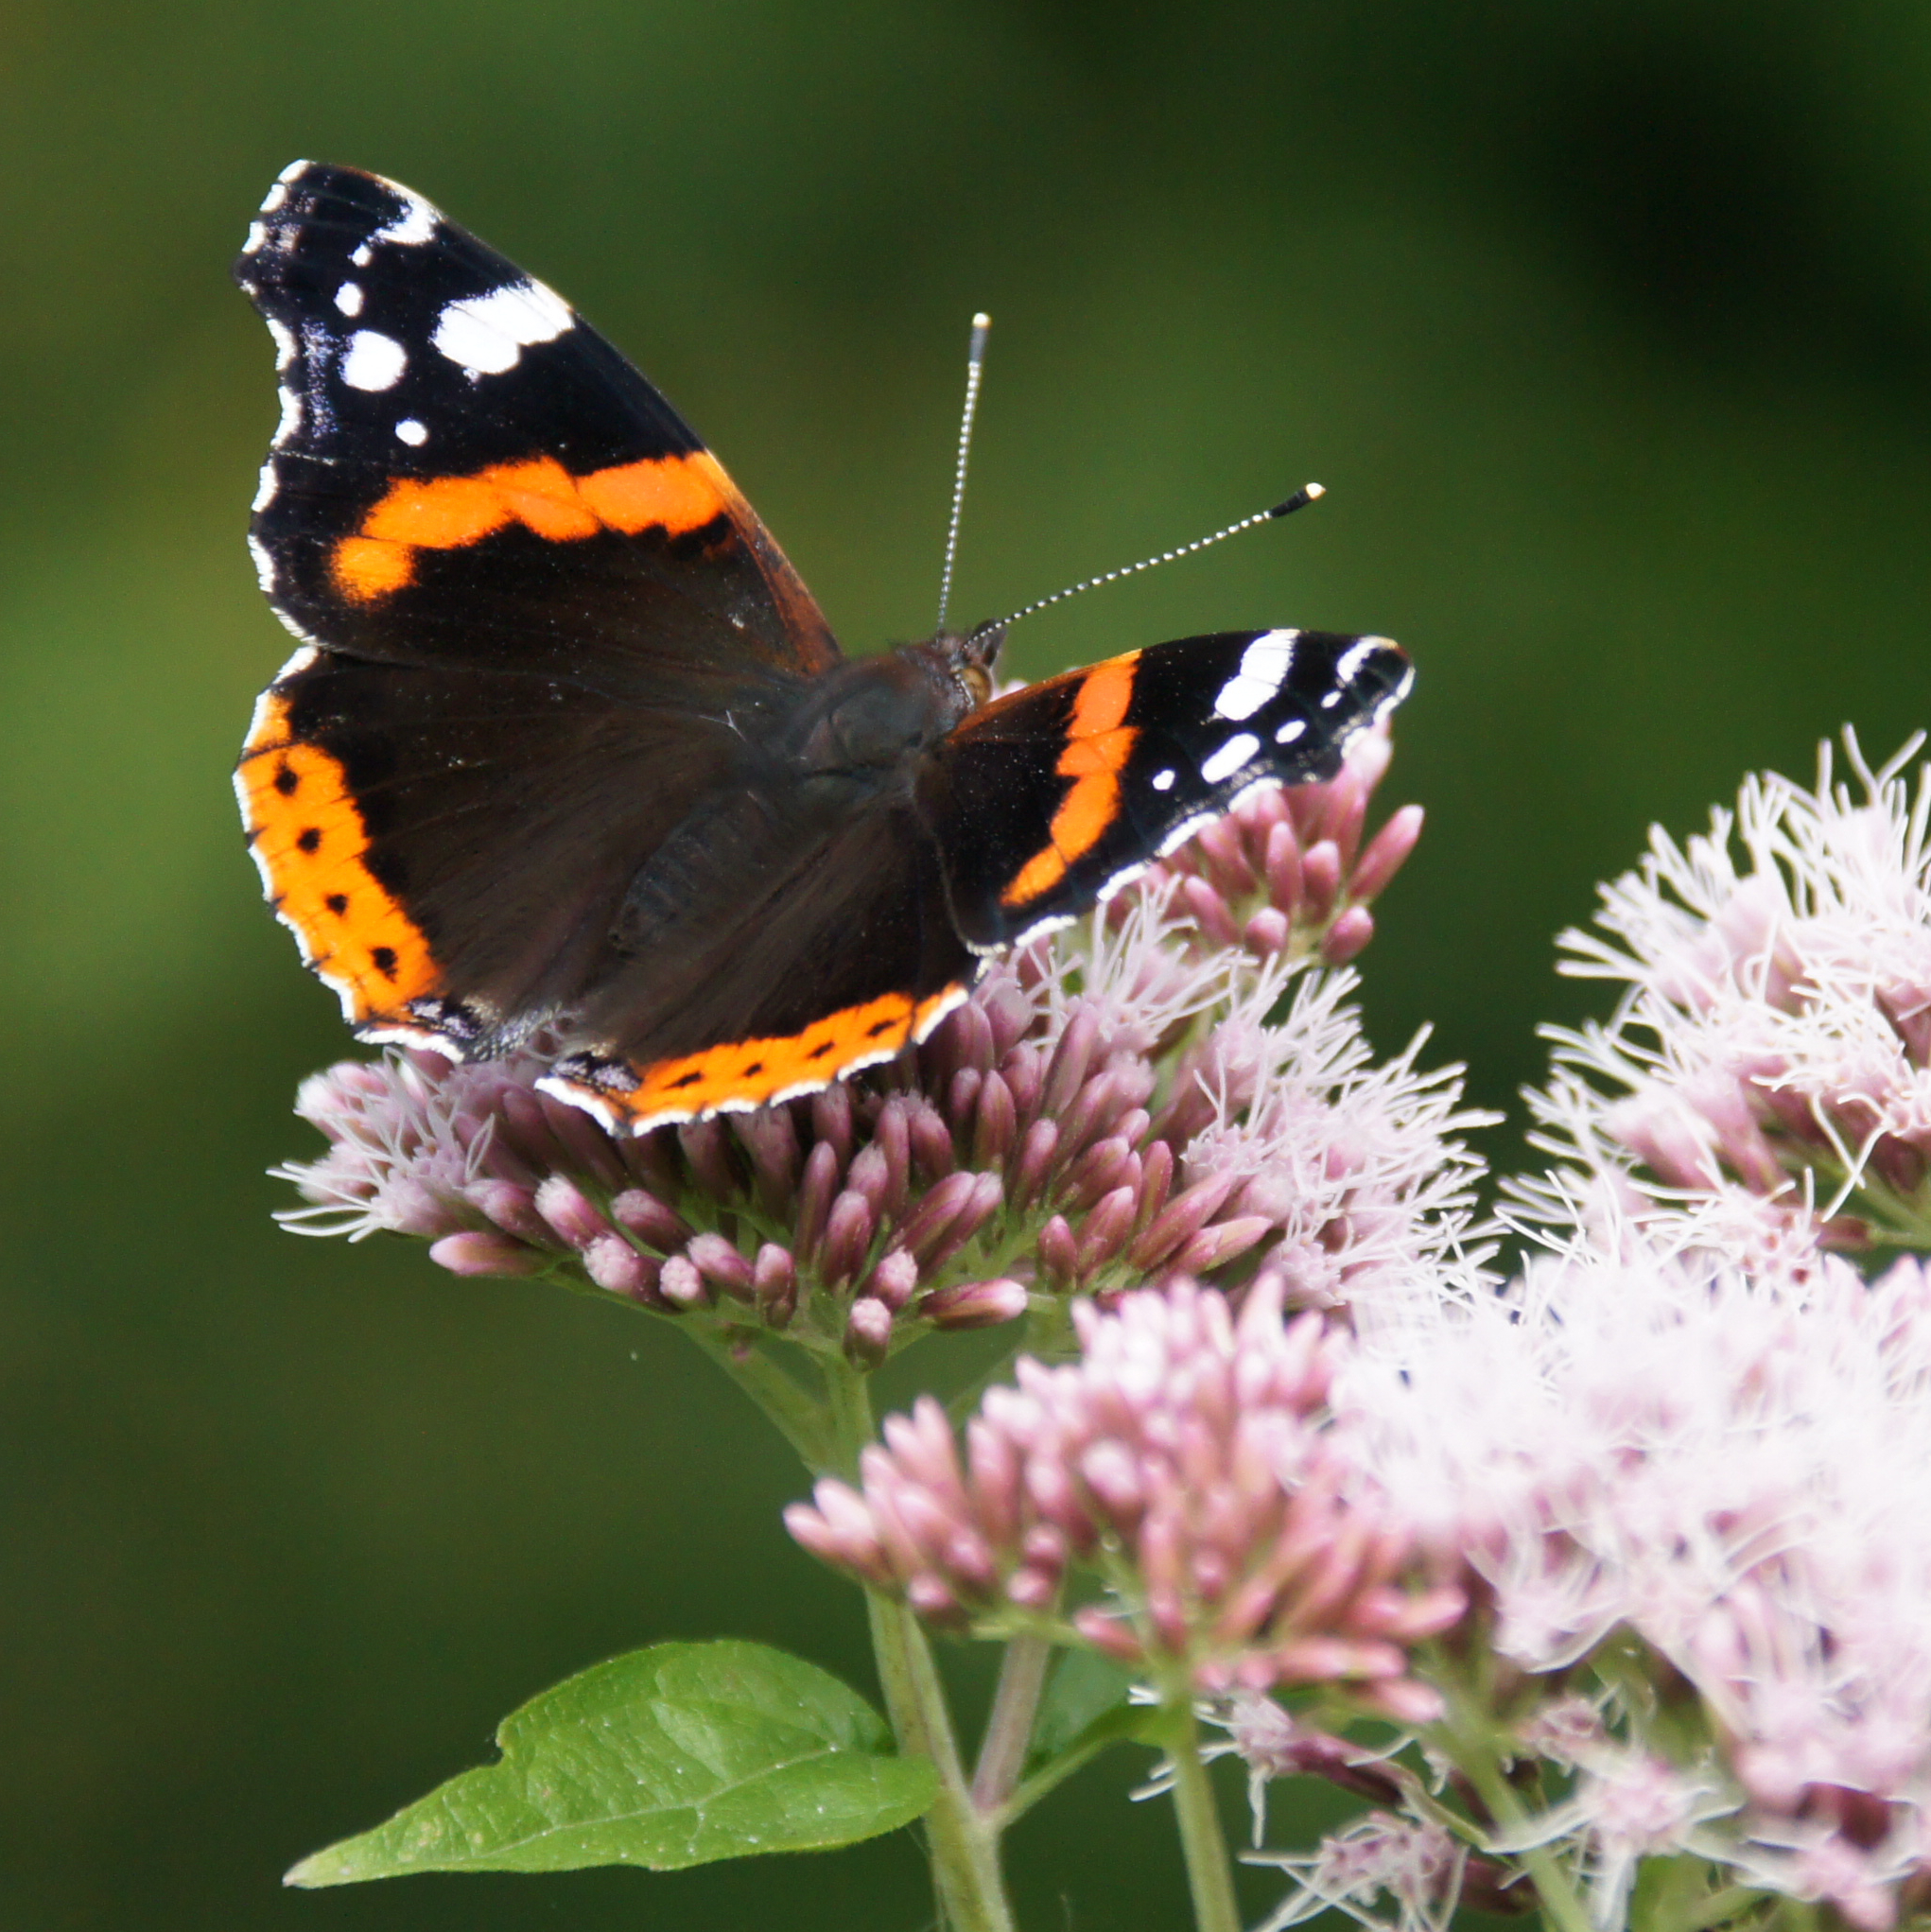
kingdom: Animalia
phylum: Arthropoda
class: Insecta
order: Lepidoptera
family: Nymphalidae
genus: Vanessa
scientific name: Vanessa atalanta
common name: Red admiral
